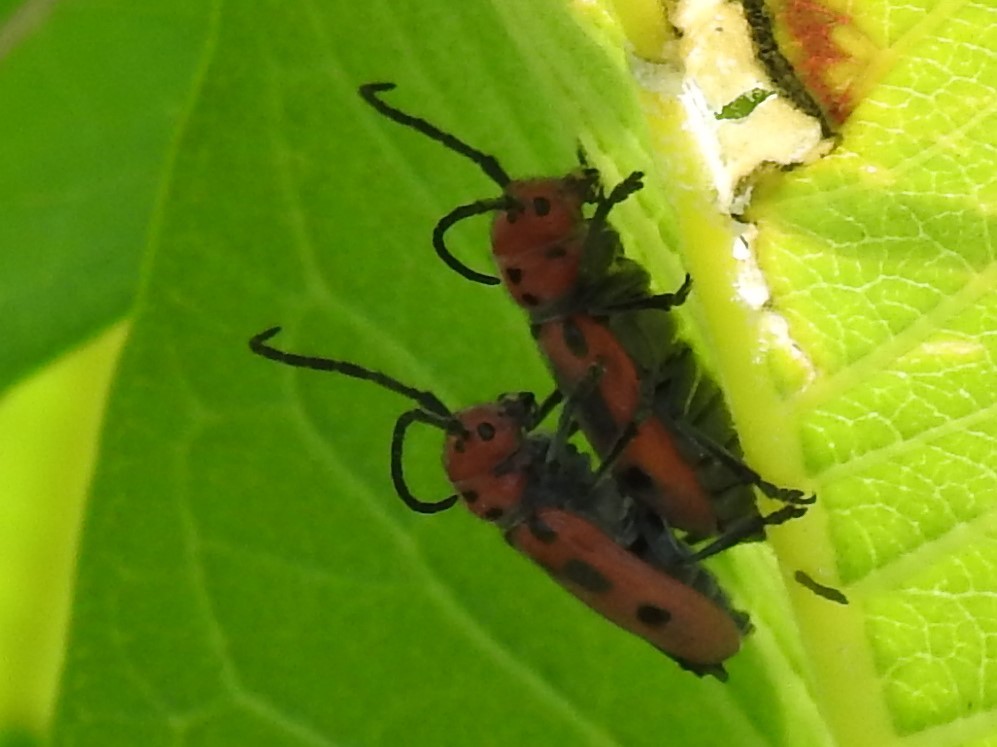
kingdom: Animalia
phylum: Arthropoda
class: Insecta
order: Coleoptera
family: Cerambycidae
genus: Tetraopes
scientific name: Tetraopes tetrophthalmus
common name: Red milkweed beetle
